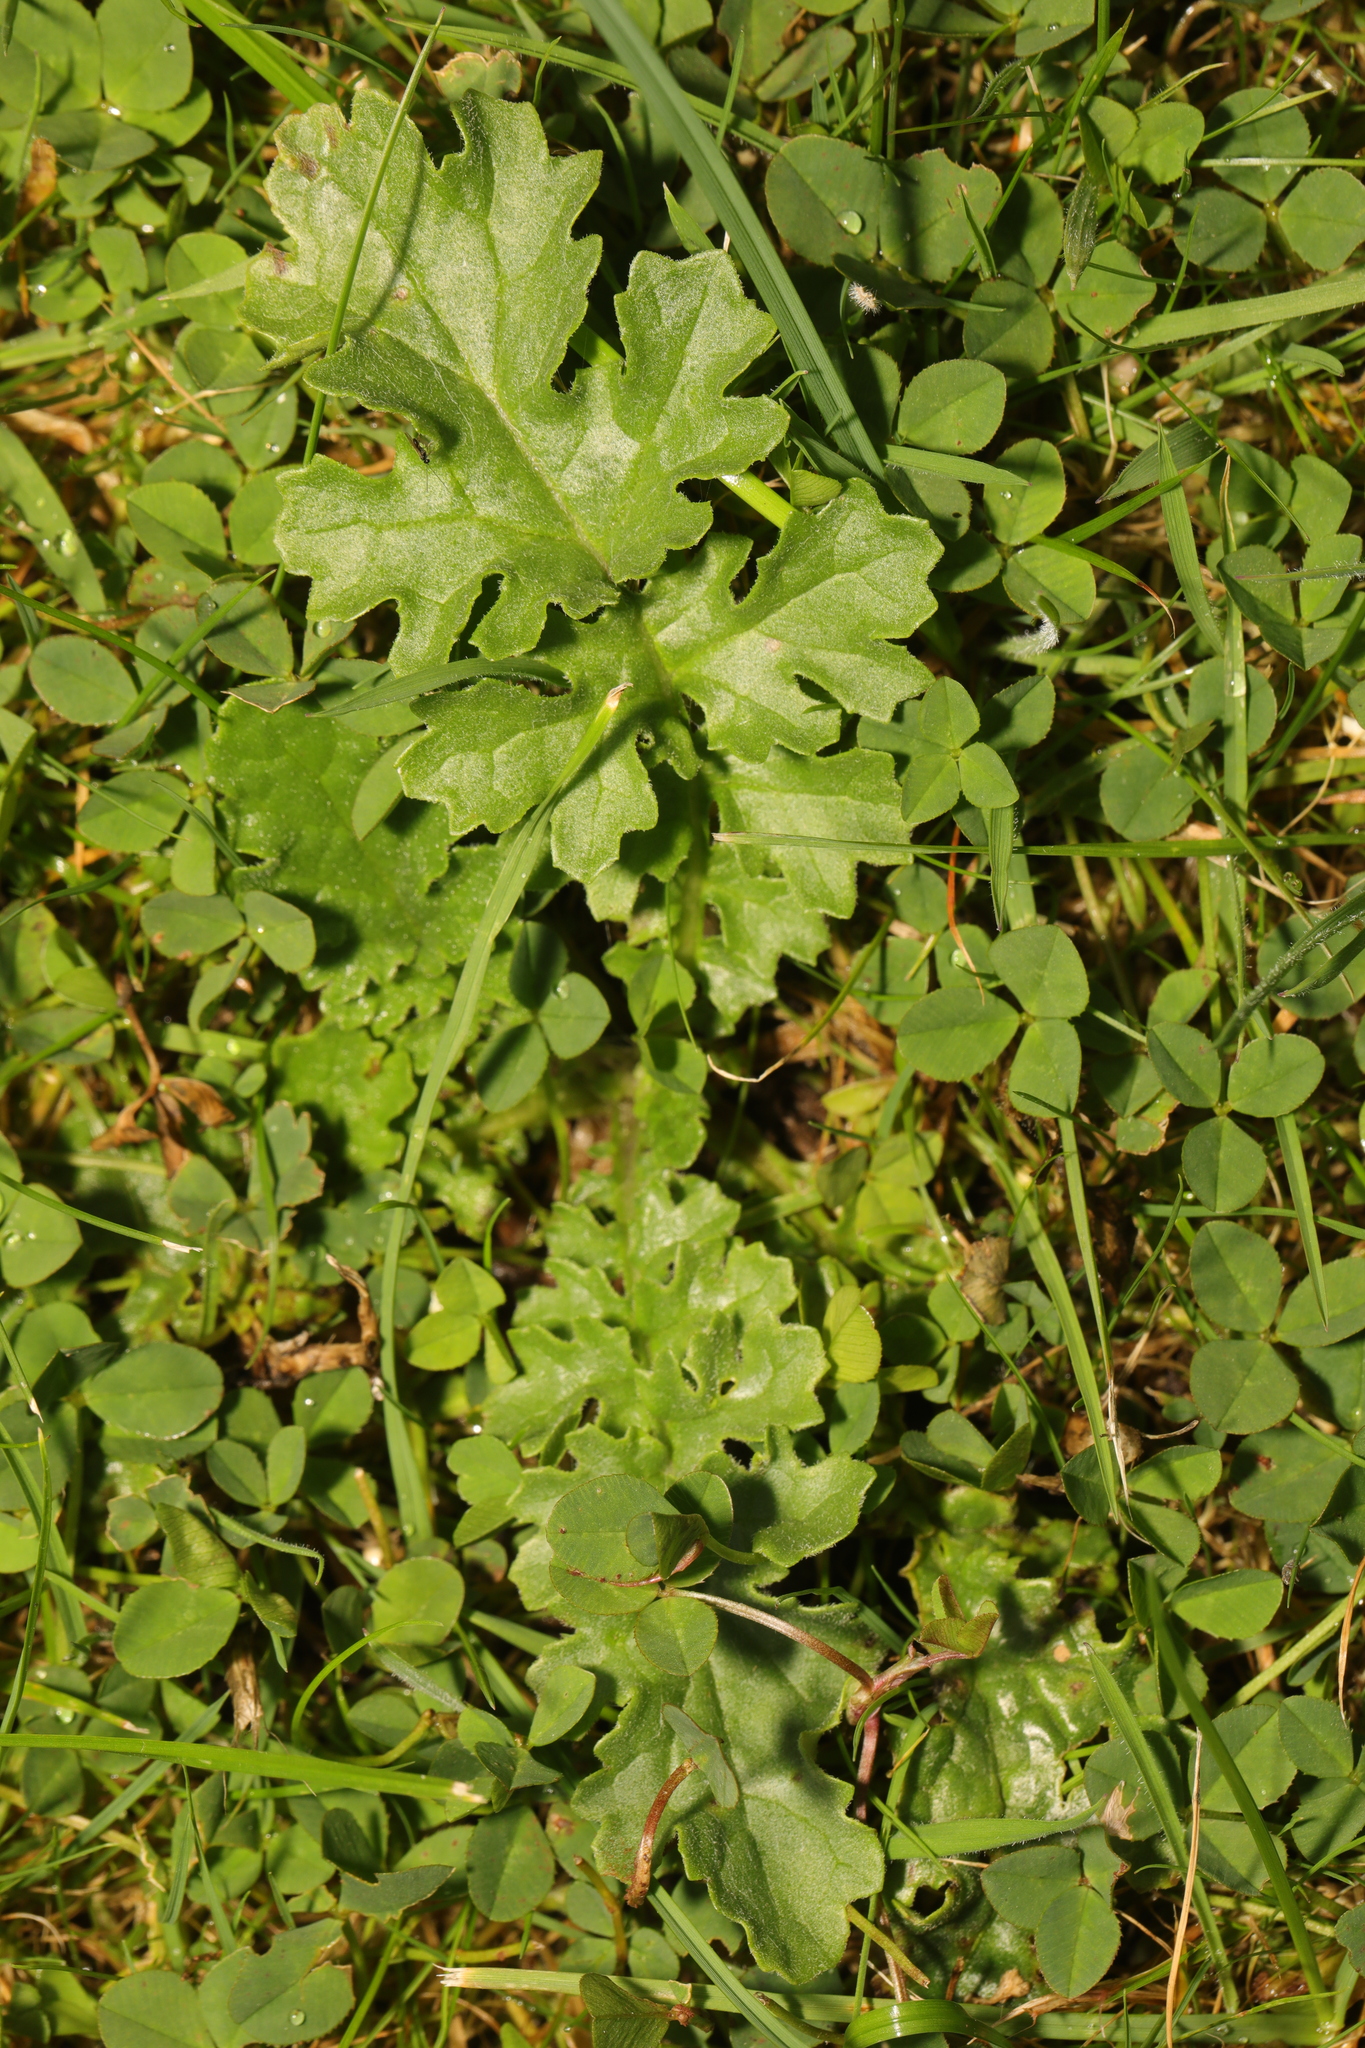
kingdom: Plantae
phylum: Tracheophyta
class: Magnoliopsida
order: Asterales
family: Asteraceae
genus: Jacobaea
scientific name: Jacobaea vulgaris
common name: Stinking willie
